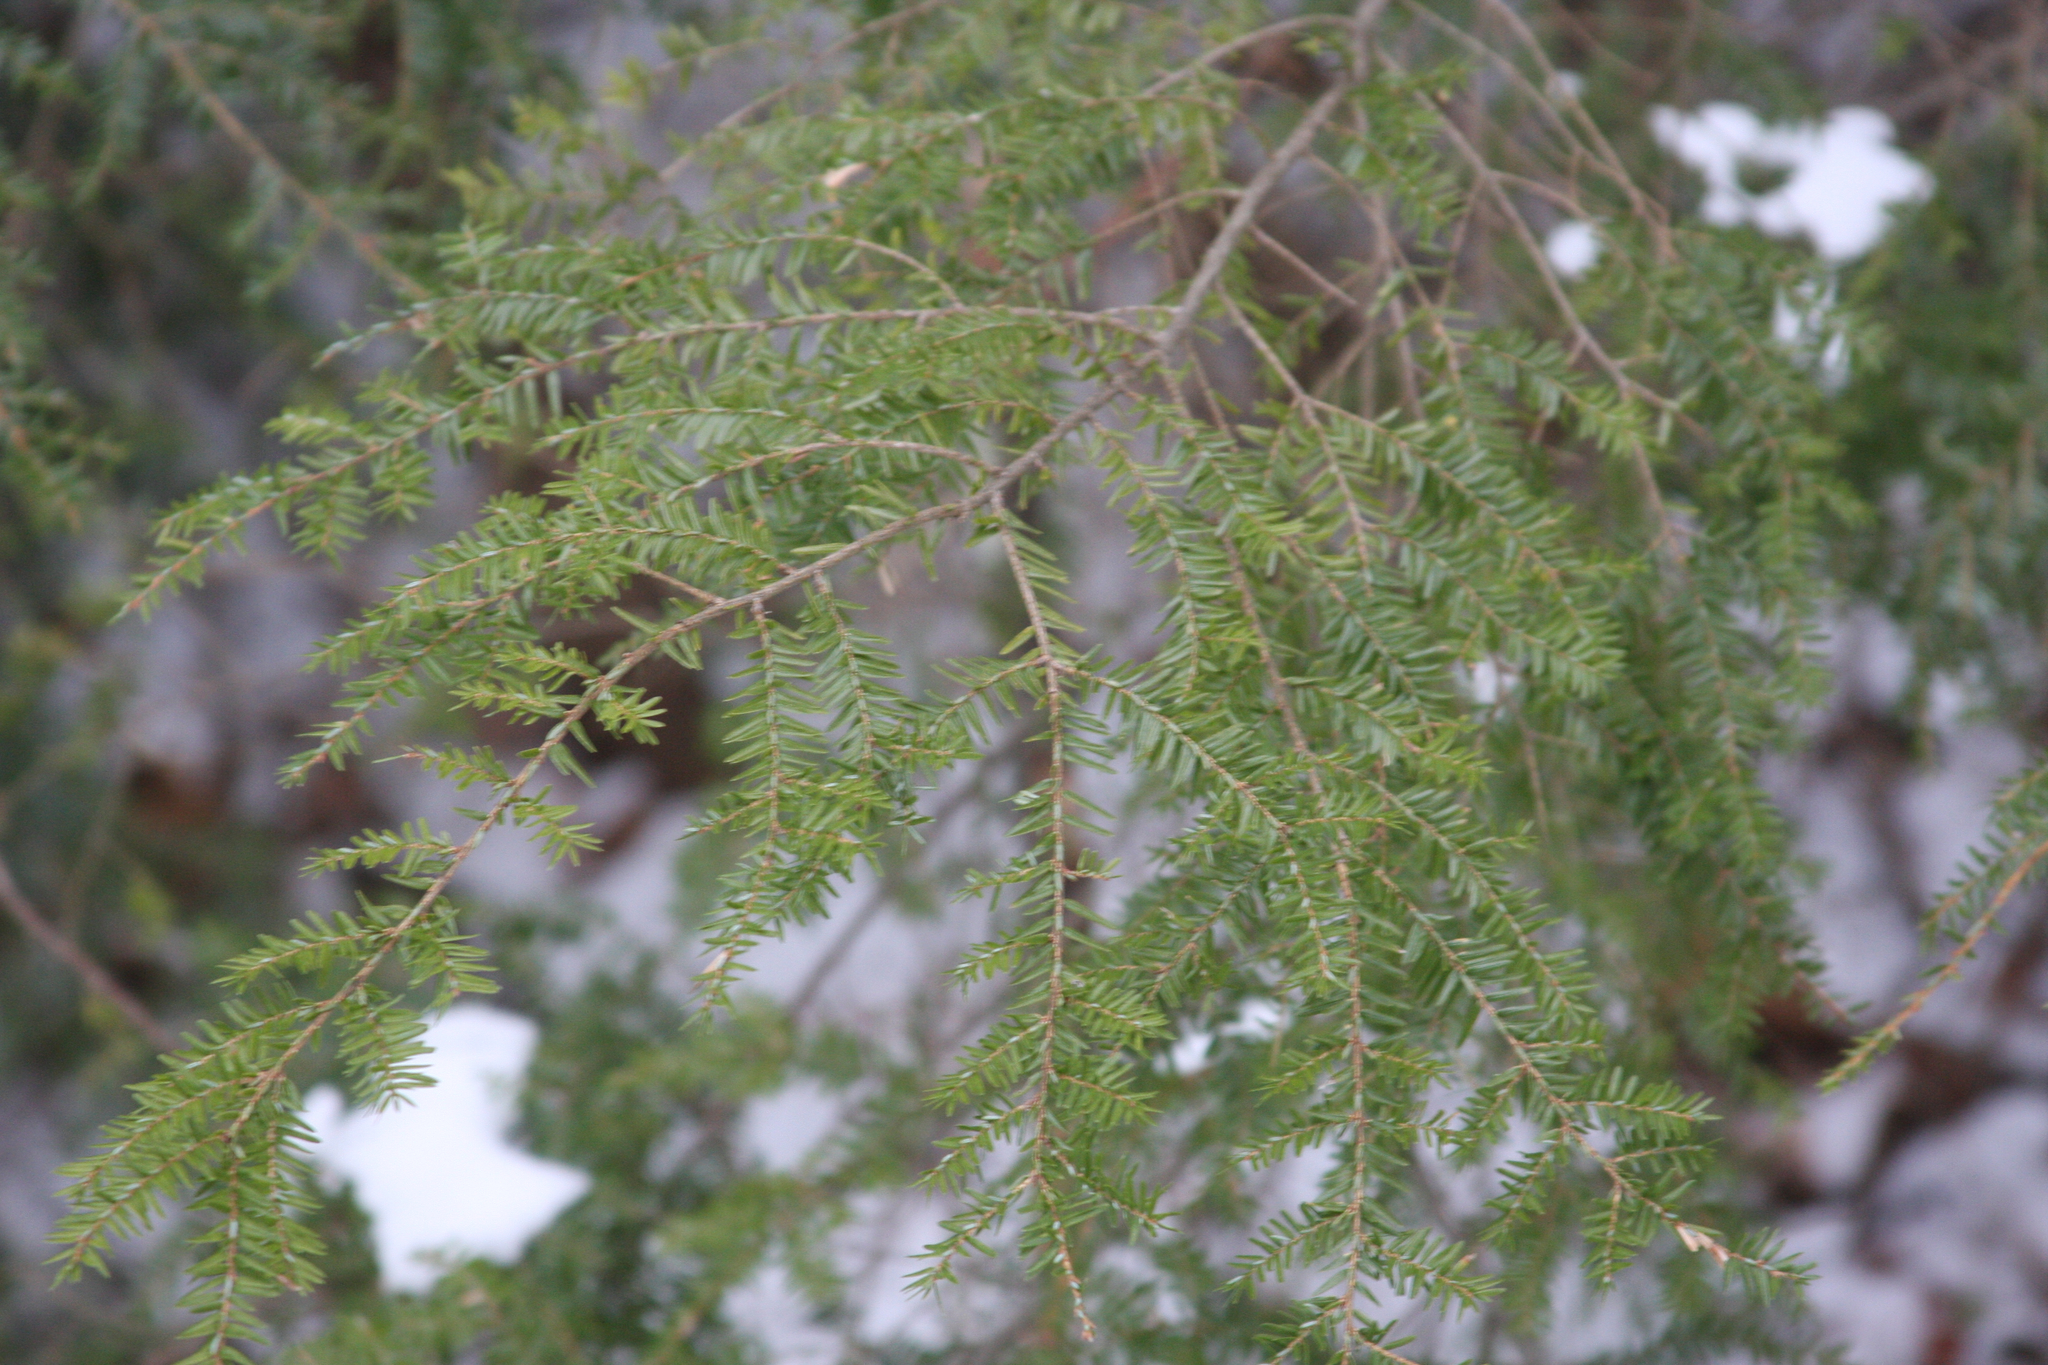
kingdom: Plantae
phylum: Tracheophyta
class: Pinopsida
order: Pinales
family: Pinaceae
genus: Tsuga
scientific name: Tsuga canadensis
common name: Eastern hemlock
